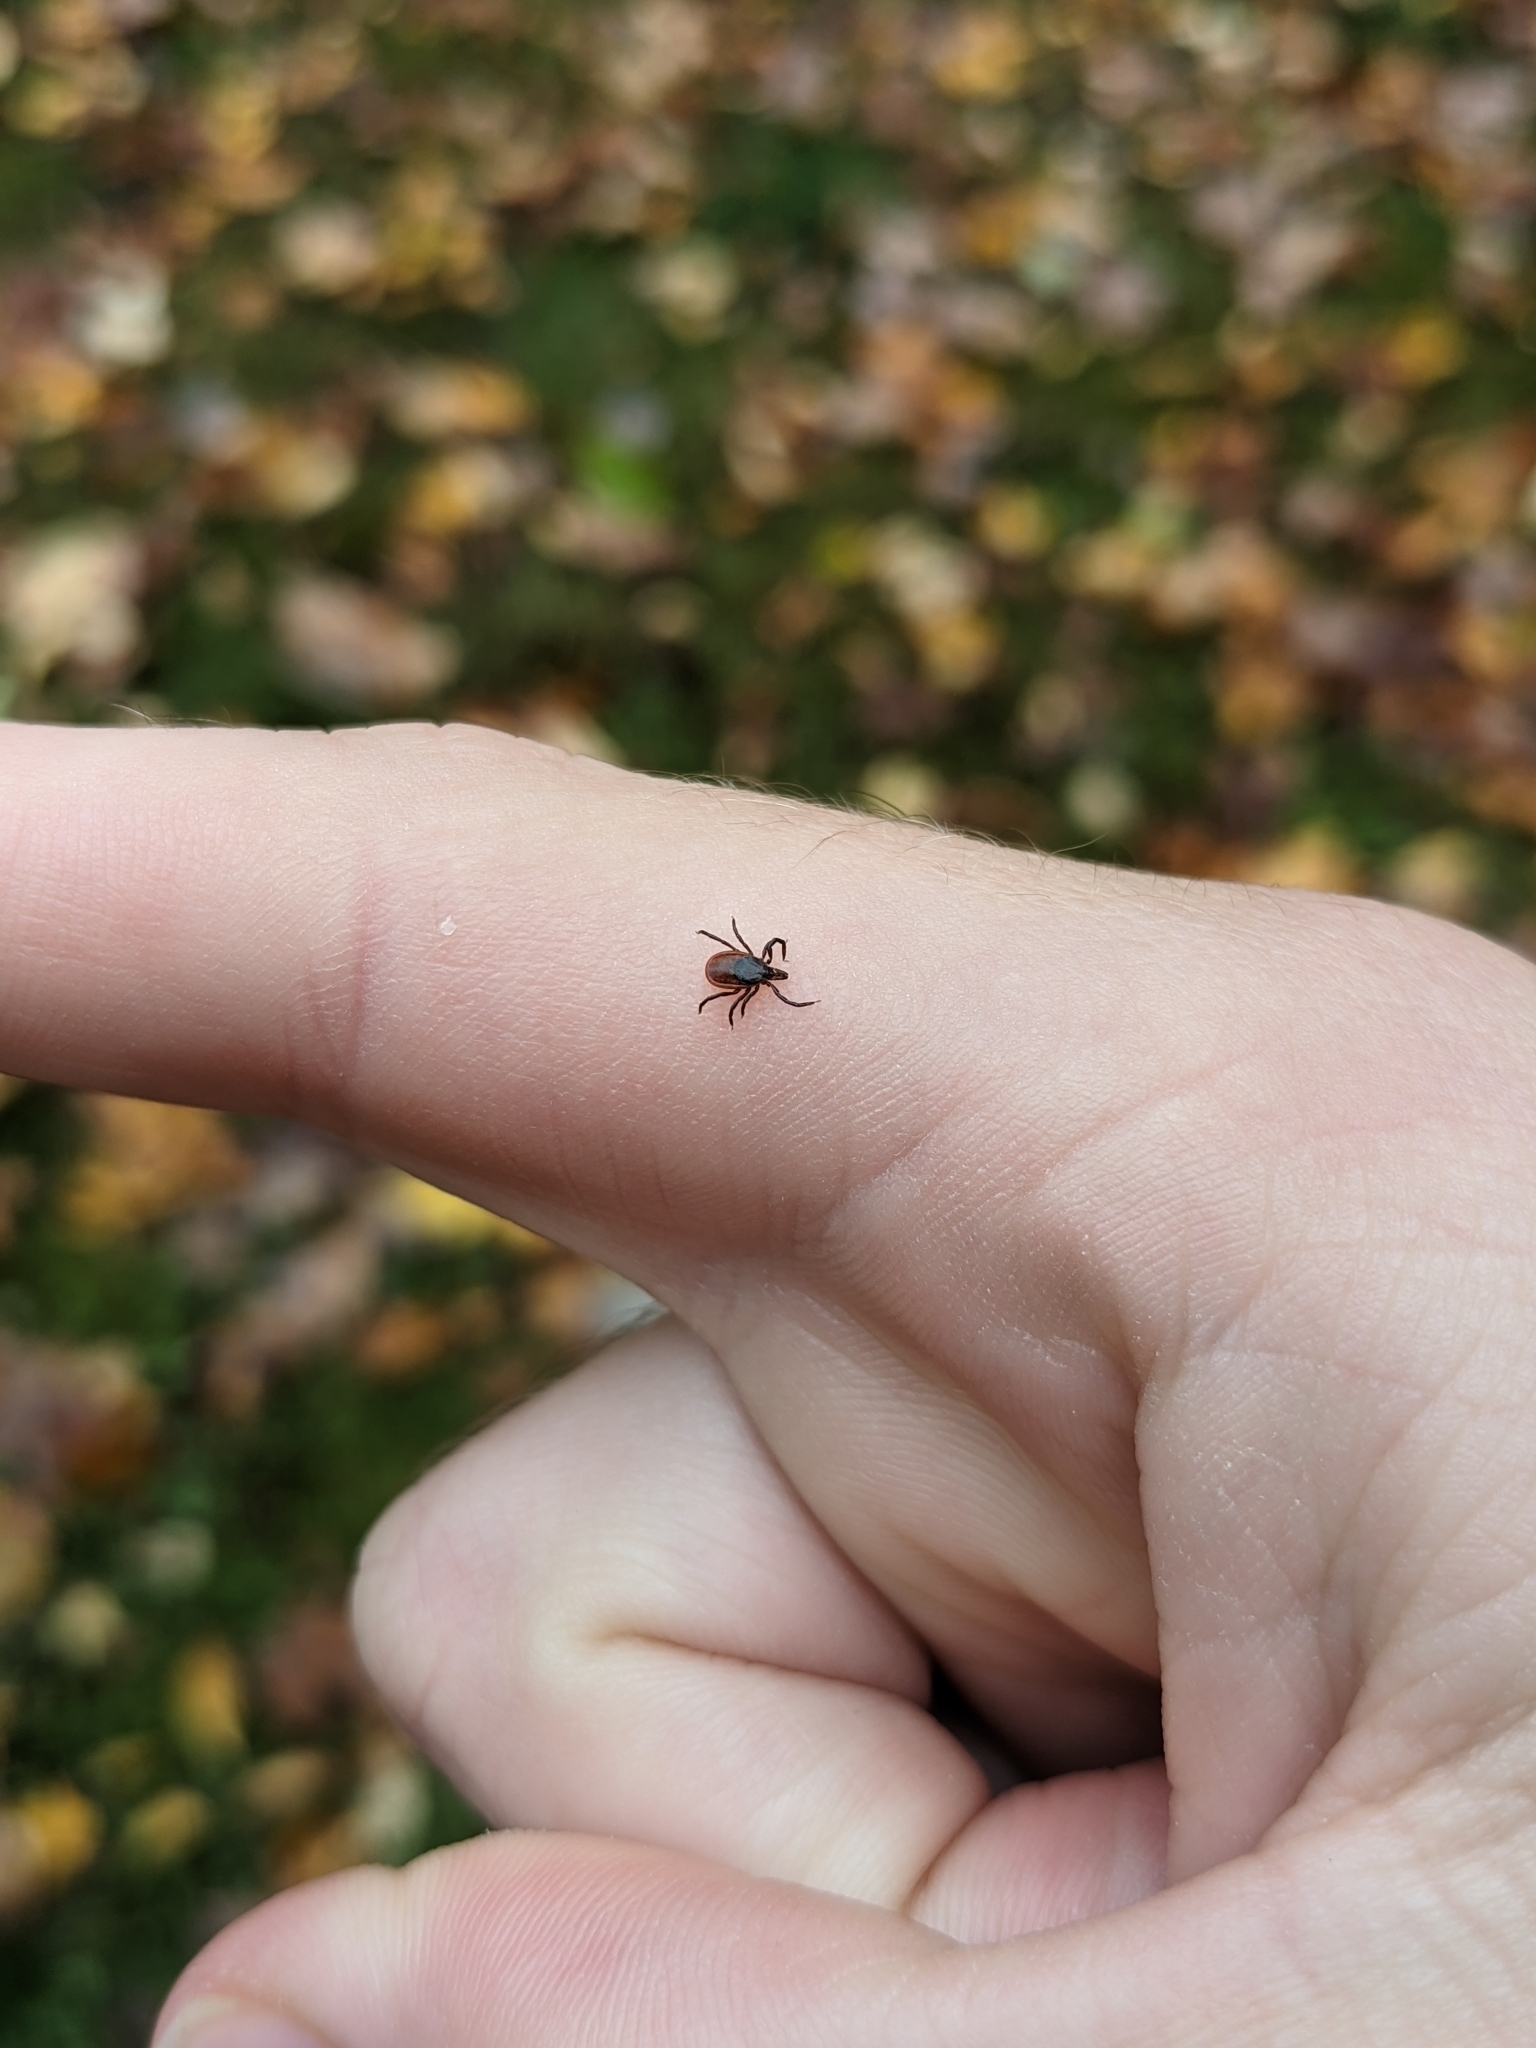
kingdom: Animalia
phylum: Arthropoda
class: Arachnida
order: Ixodida
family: Ixodidae
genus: Ixodes
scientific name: Ixodes scapularis
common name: Black legged tick
